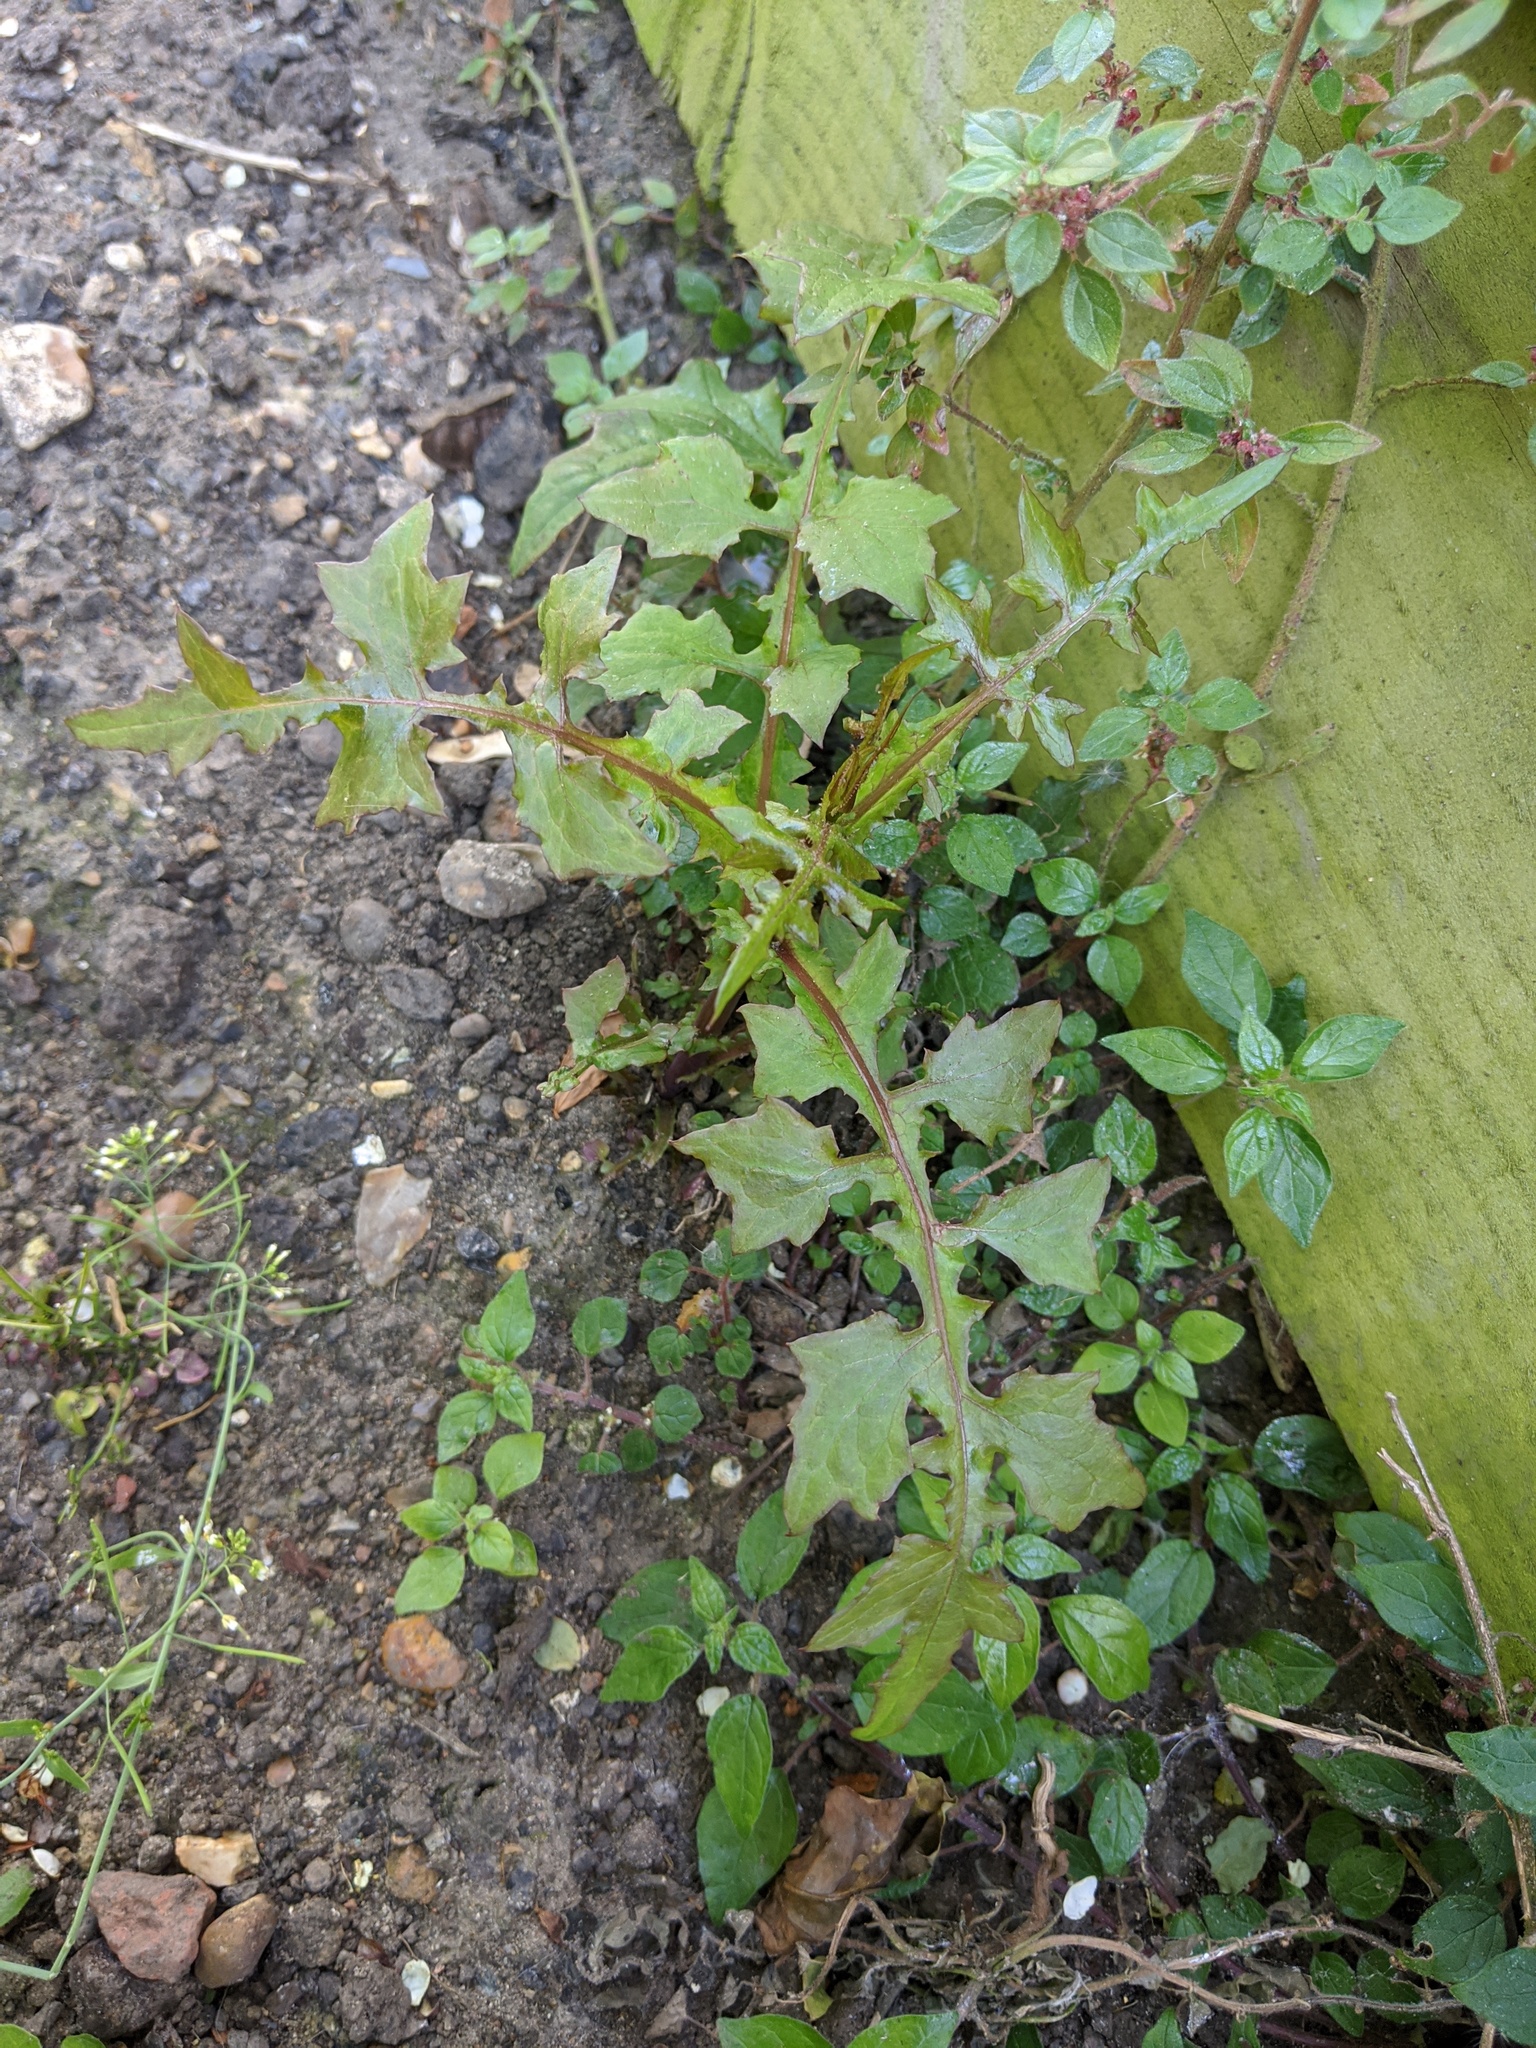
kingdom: Plantae
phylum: Tracheophyta
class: Magnoliopsida
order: Asterales
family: Asteraceae
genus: Mycelis
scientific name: Mycelis muralis
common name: Wall lettuce
